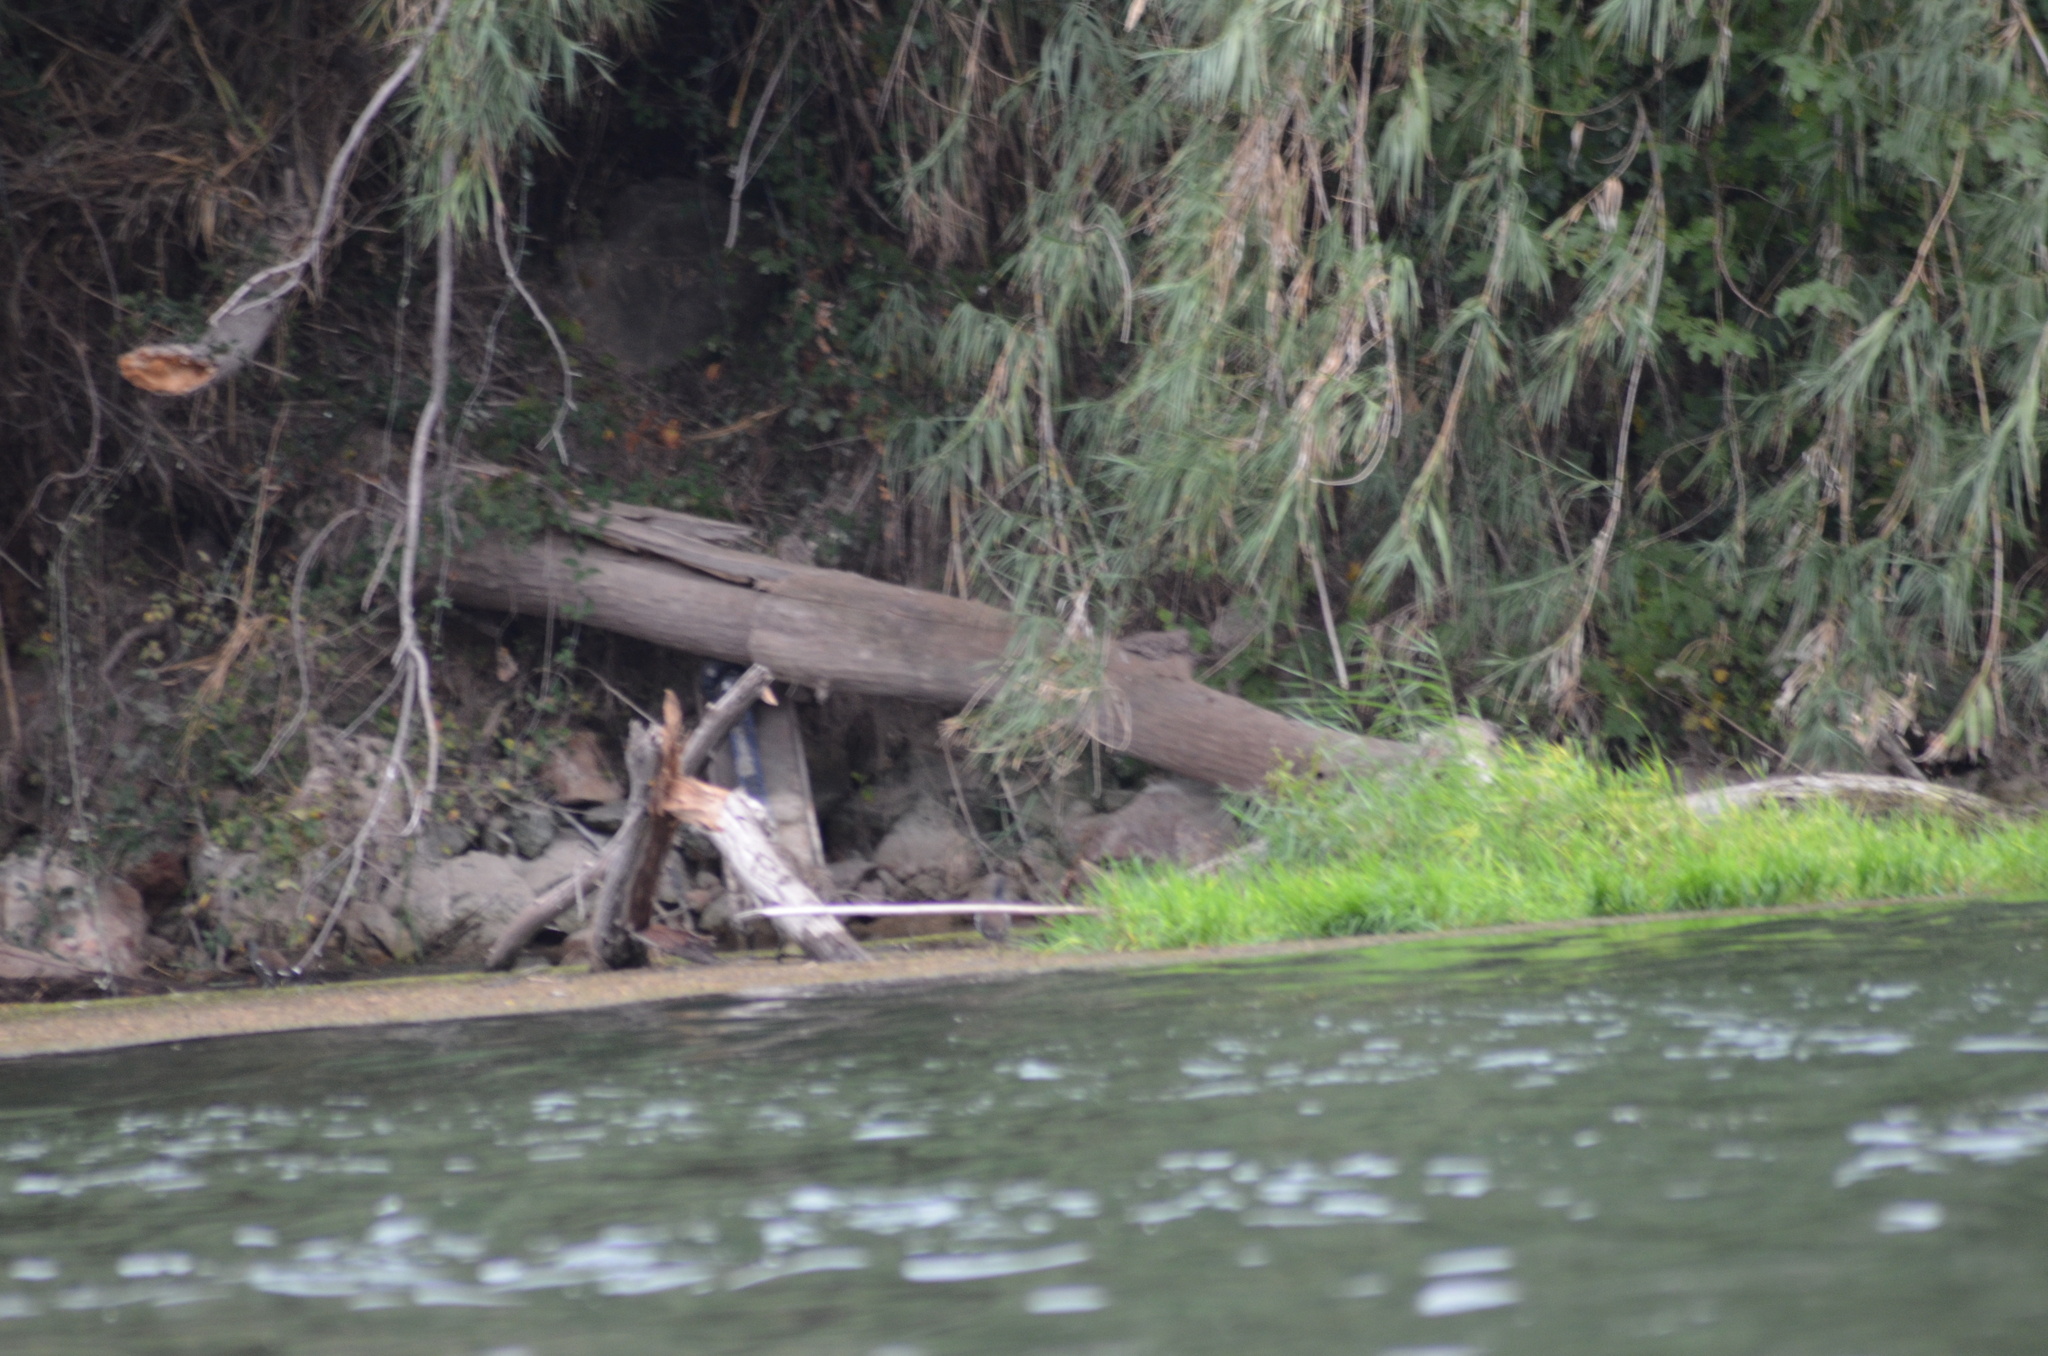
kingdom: Animalia
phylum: Chordata
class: Aves
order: Gruiformes
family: Rallidae
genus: Gallinula
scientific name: Gallinula chloropus
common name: Common moorhen
